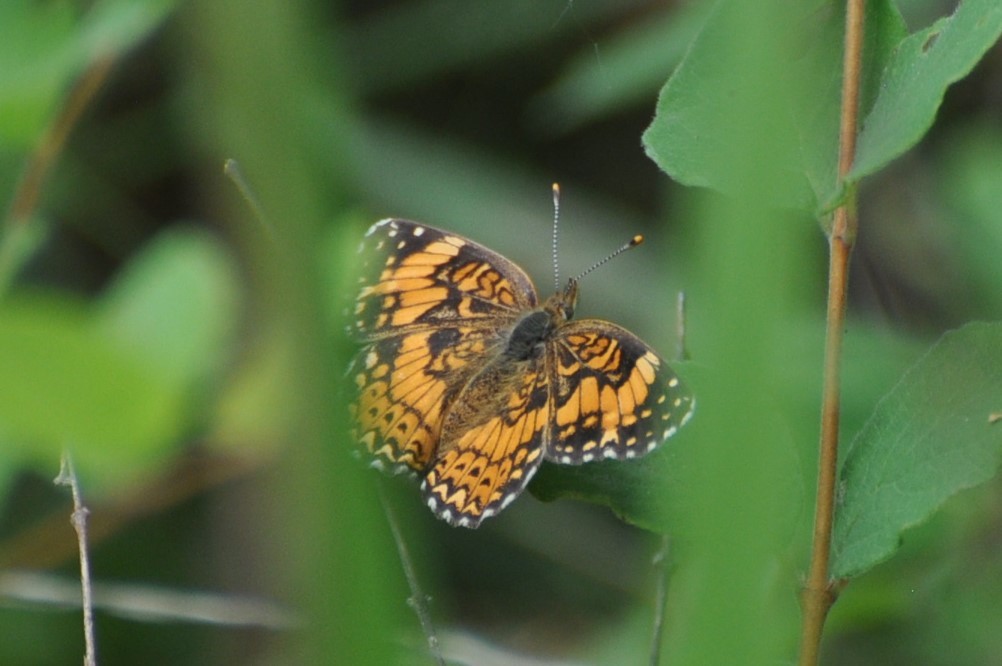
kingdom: Animalia
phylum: Arthropoda
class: Insecta
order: Lepidoptera
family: Nymphalidae
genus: Chlosyne
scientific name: Chlosyne gorgone
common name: Gorgone checkerspot
